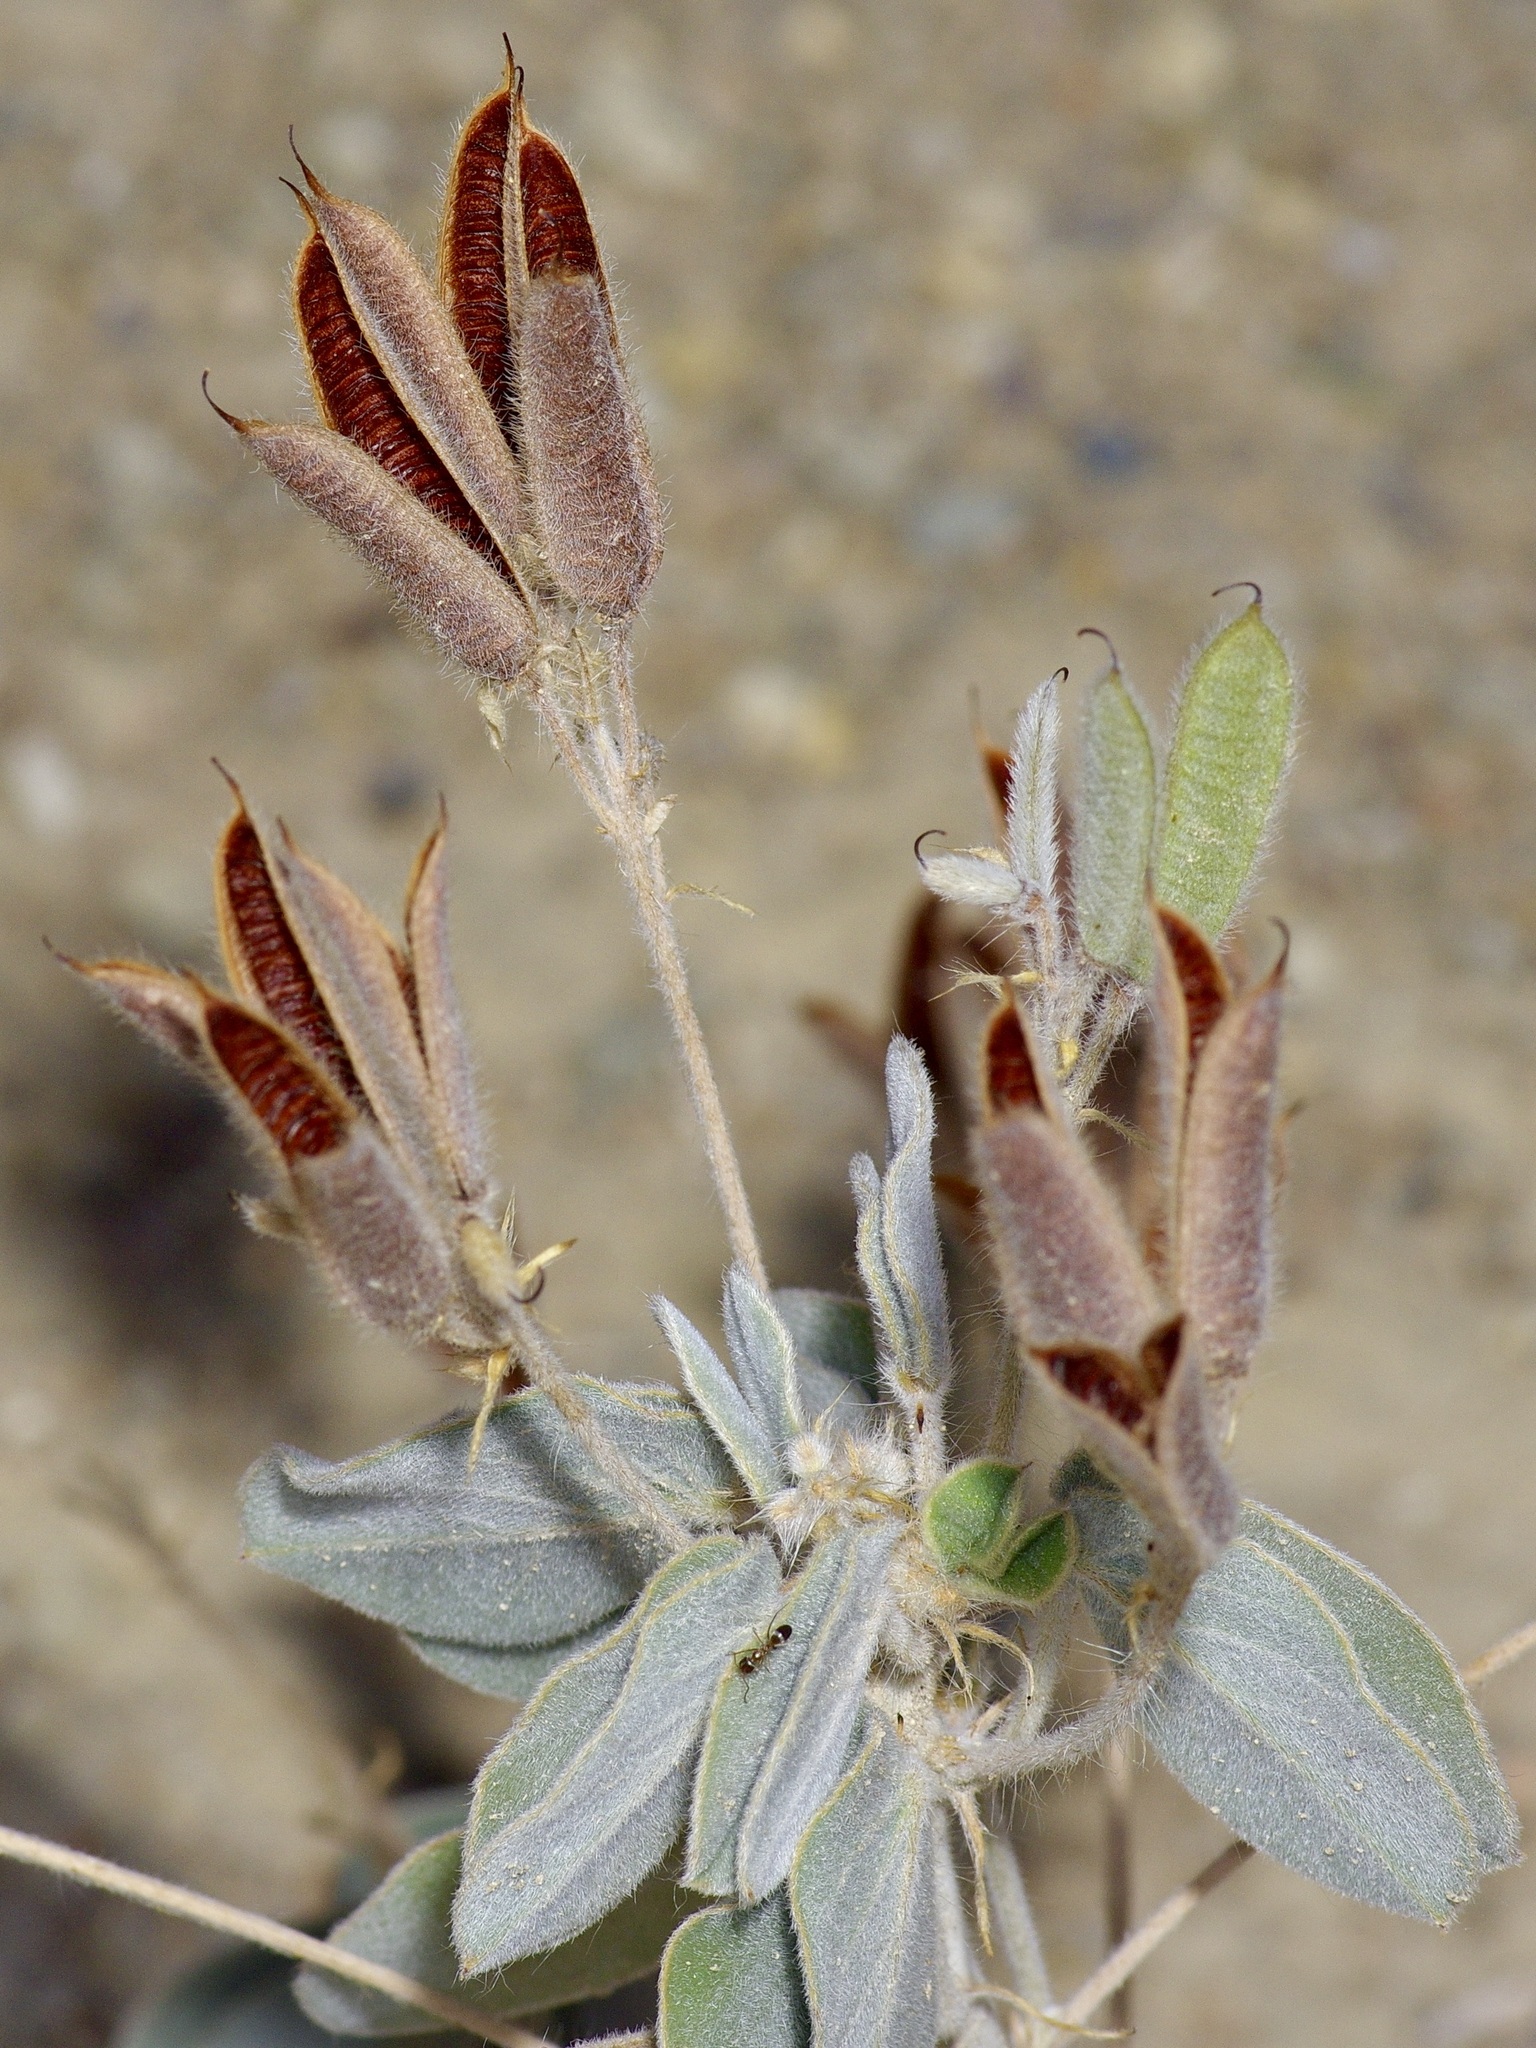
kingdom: Plantae
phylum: Tracheophyta
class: Magnoliopsida
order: Fabales
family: Fabaceae
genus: Senna
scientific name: Senna pilosior
